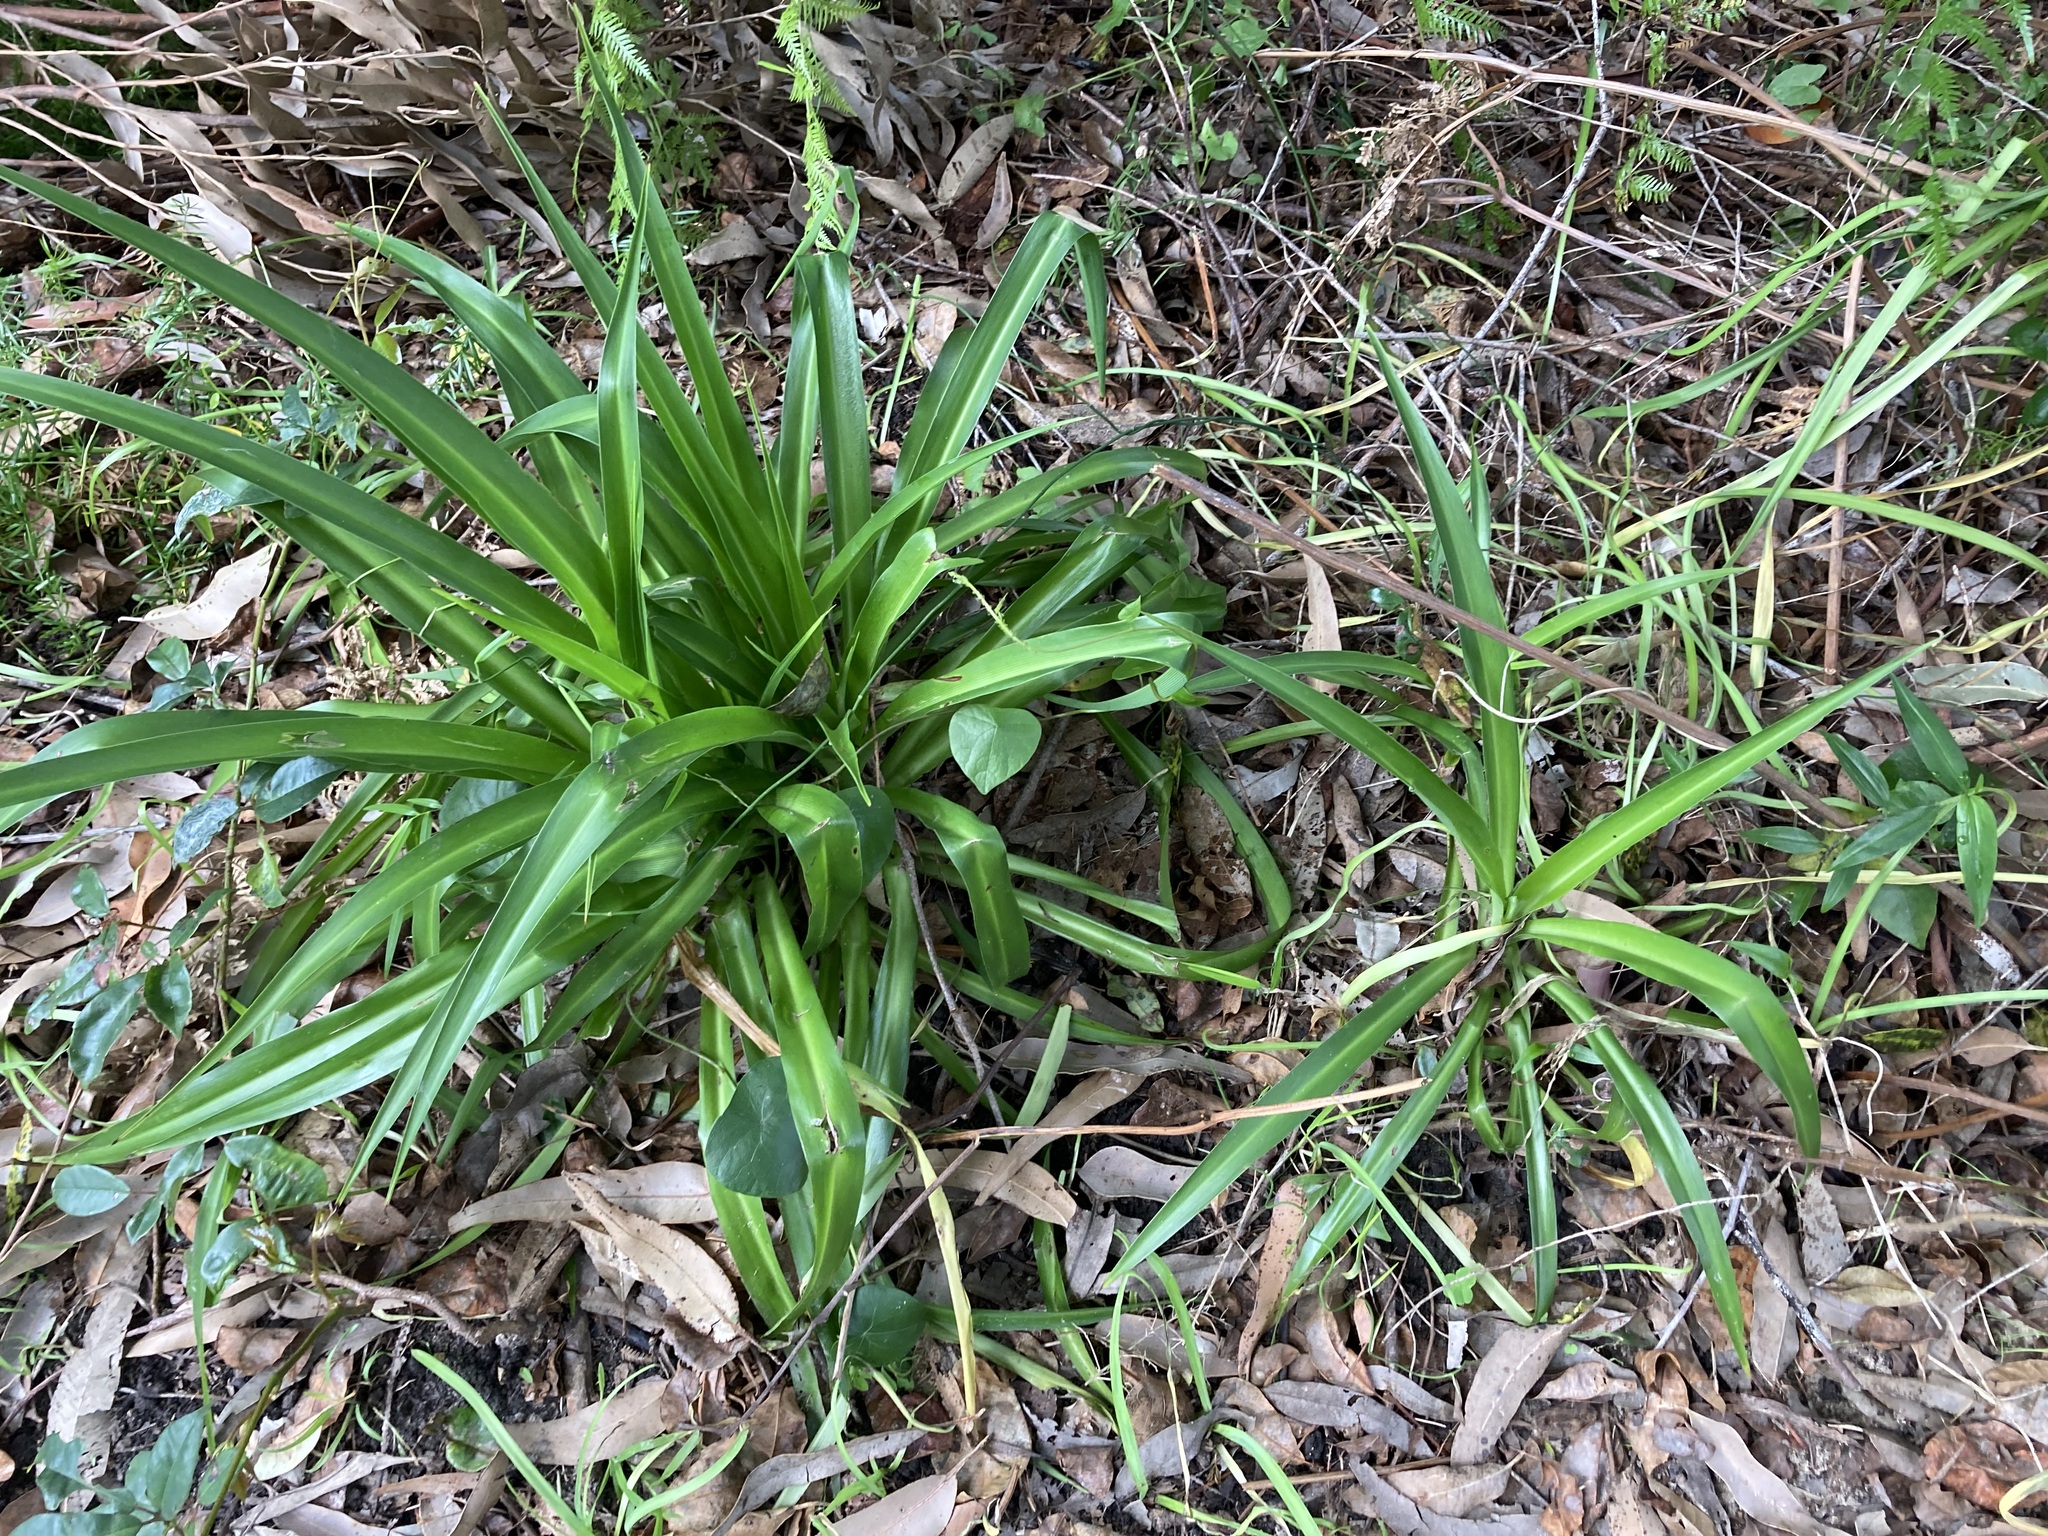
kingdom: Plantae
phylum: Tracheophyta
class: Liliopsida
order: Asparagales
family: Asparagaceae
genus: Chlorophytum
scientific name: Chlorophytum comosum
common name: Spider plant
